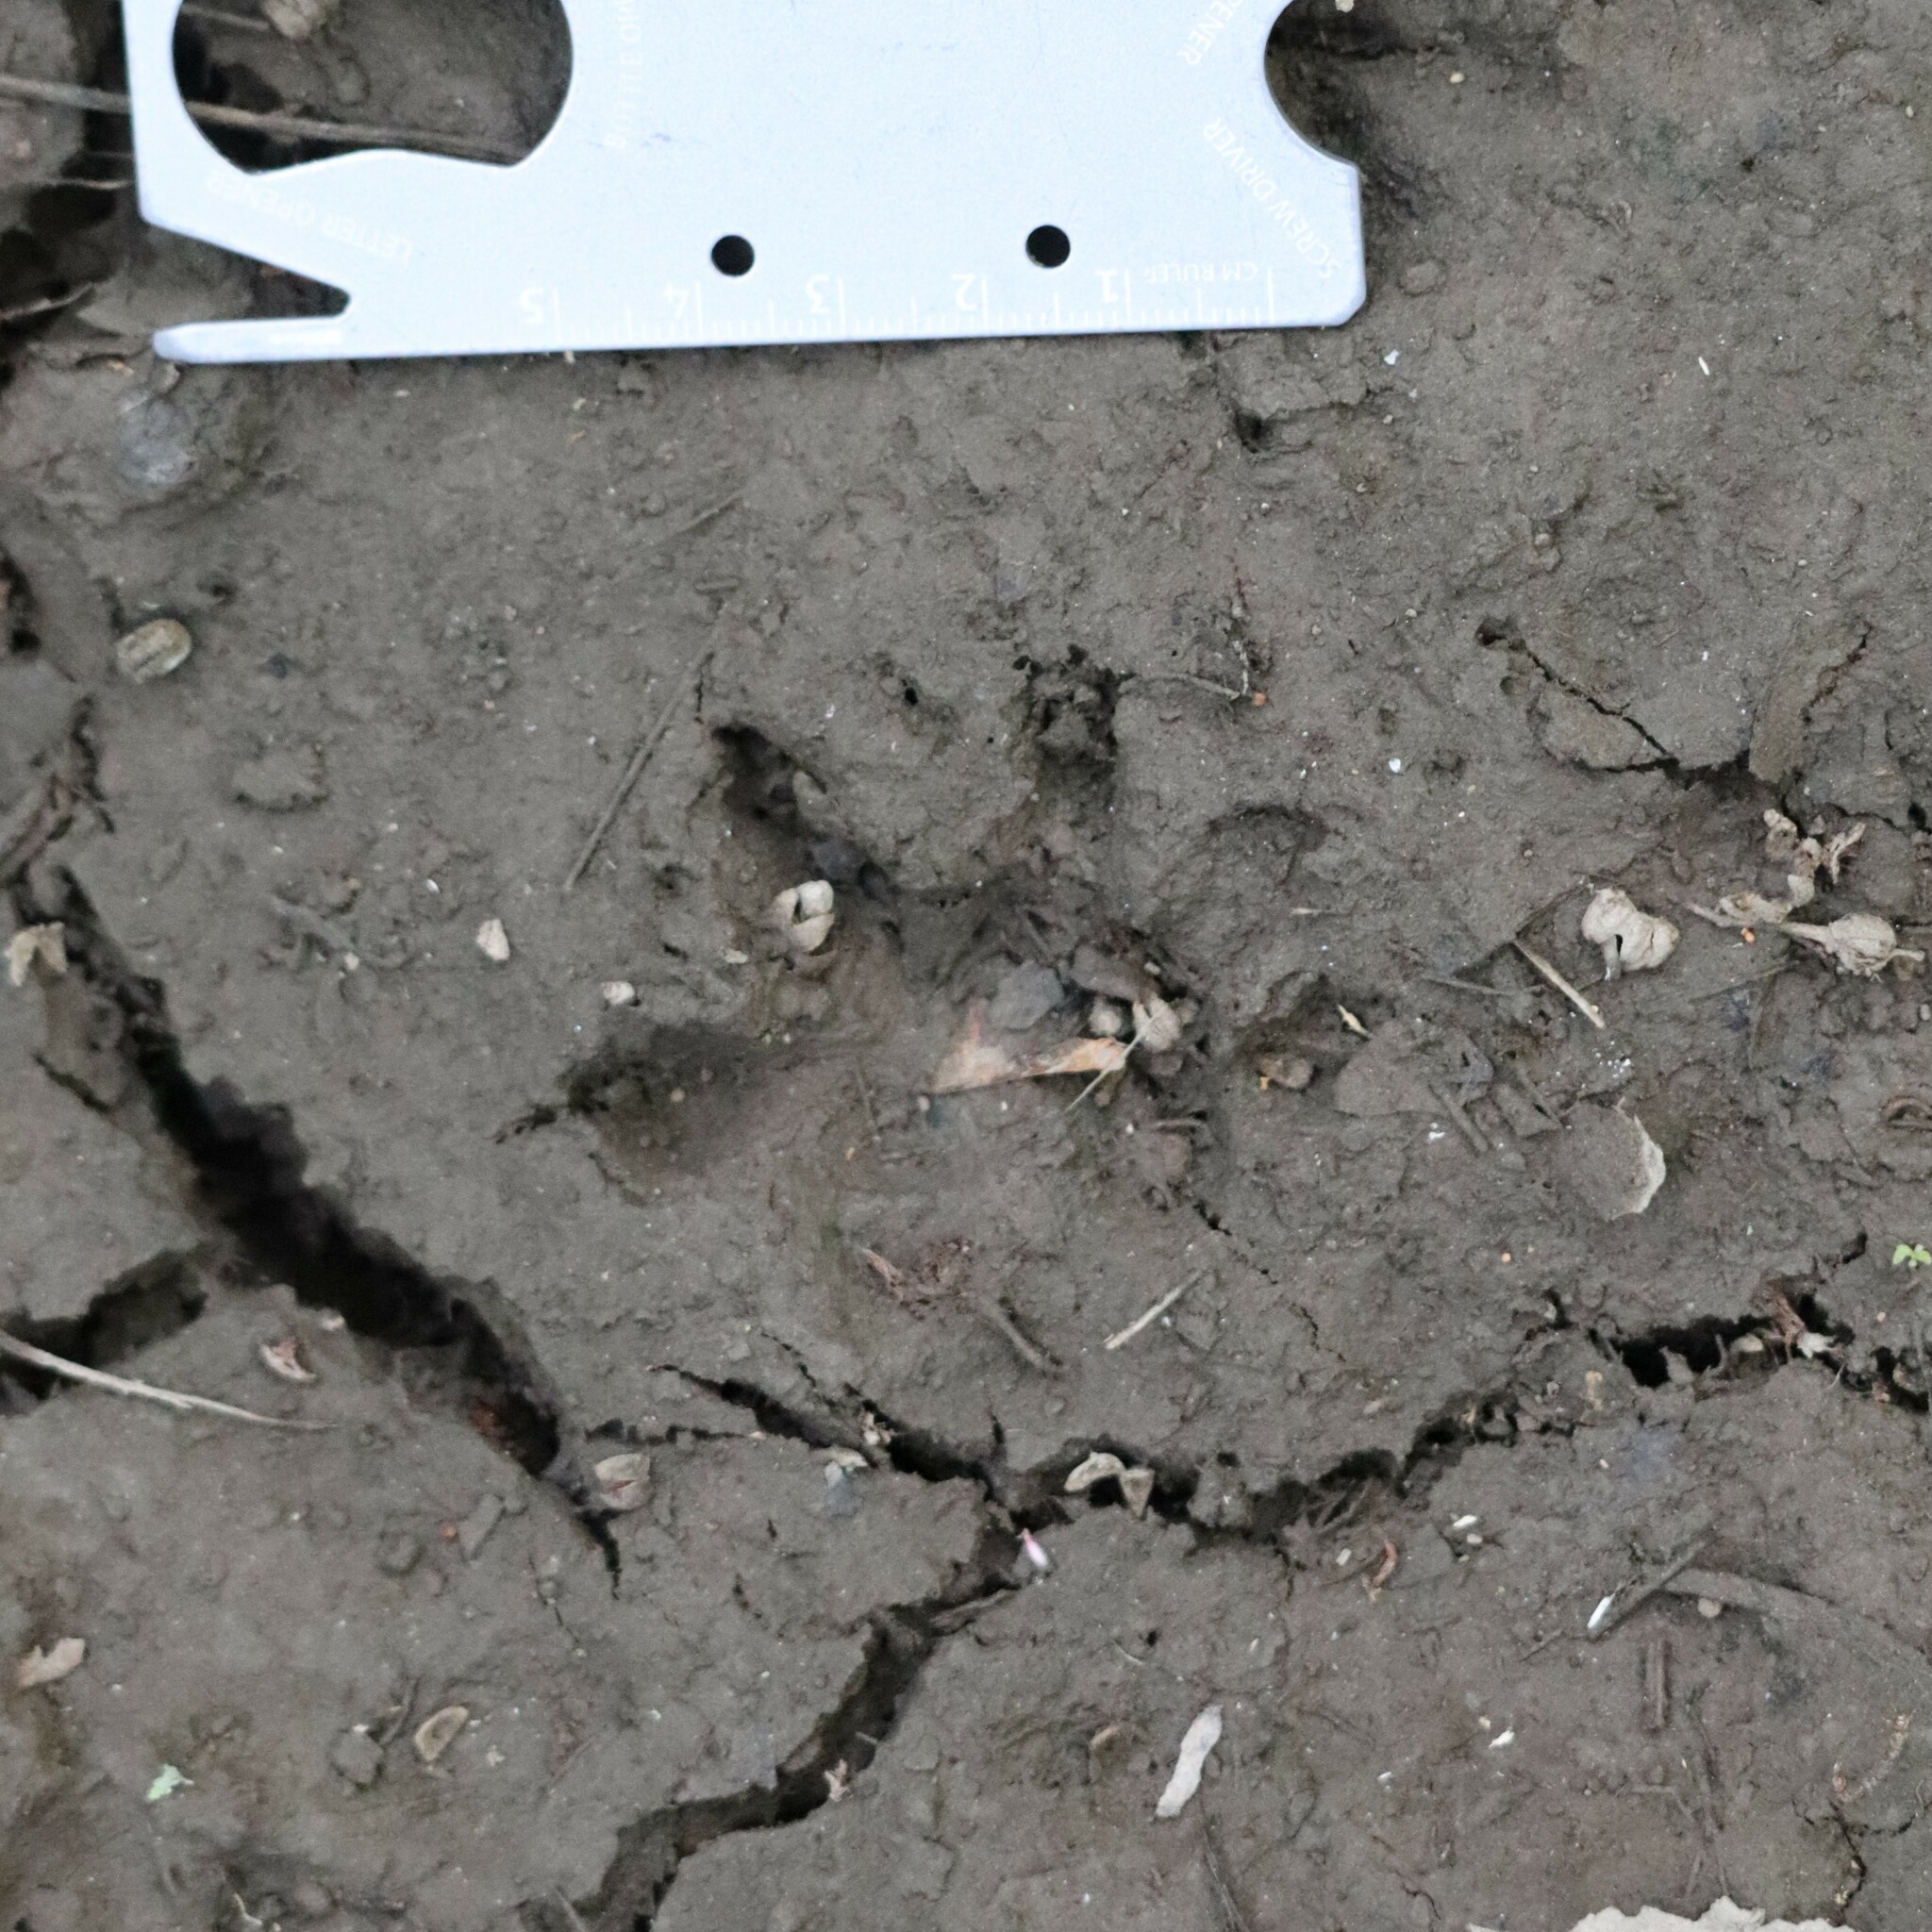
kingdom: Animalia
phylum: Chordata
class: Mammalia
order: Didelphimorphia
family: Didelphidae
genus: Didelphis
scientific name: Didelphis virginiana
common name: Virginia opossum
